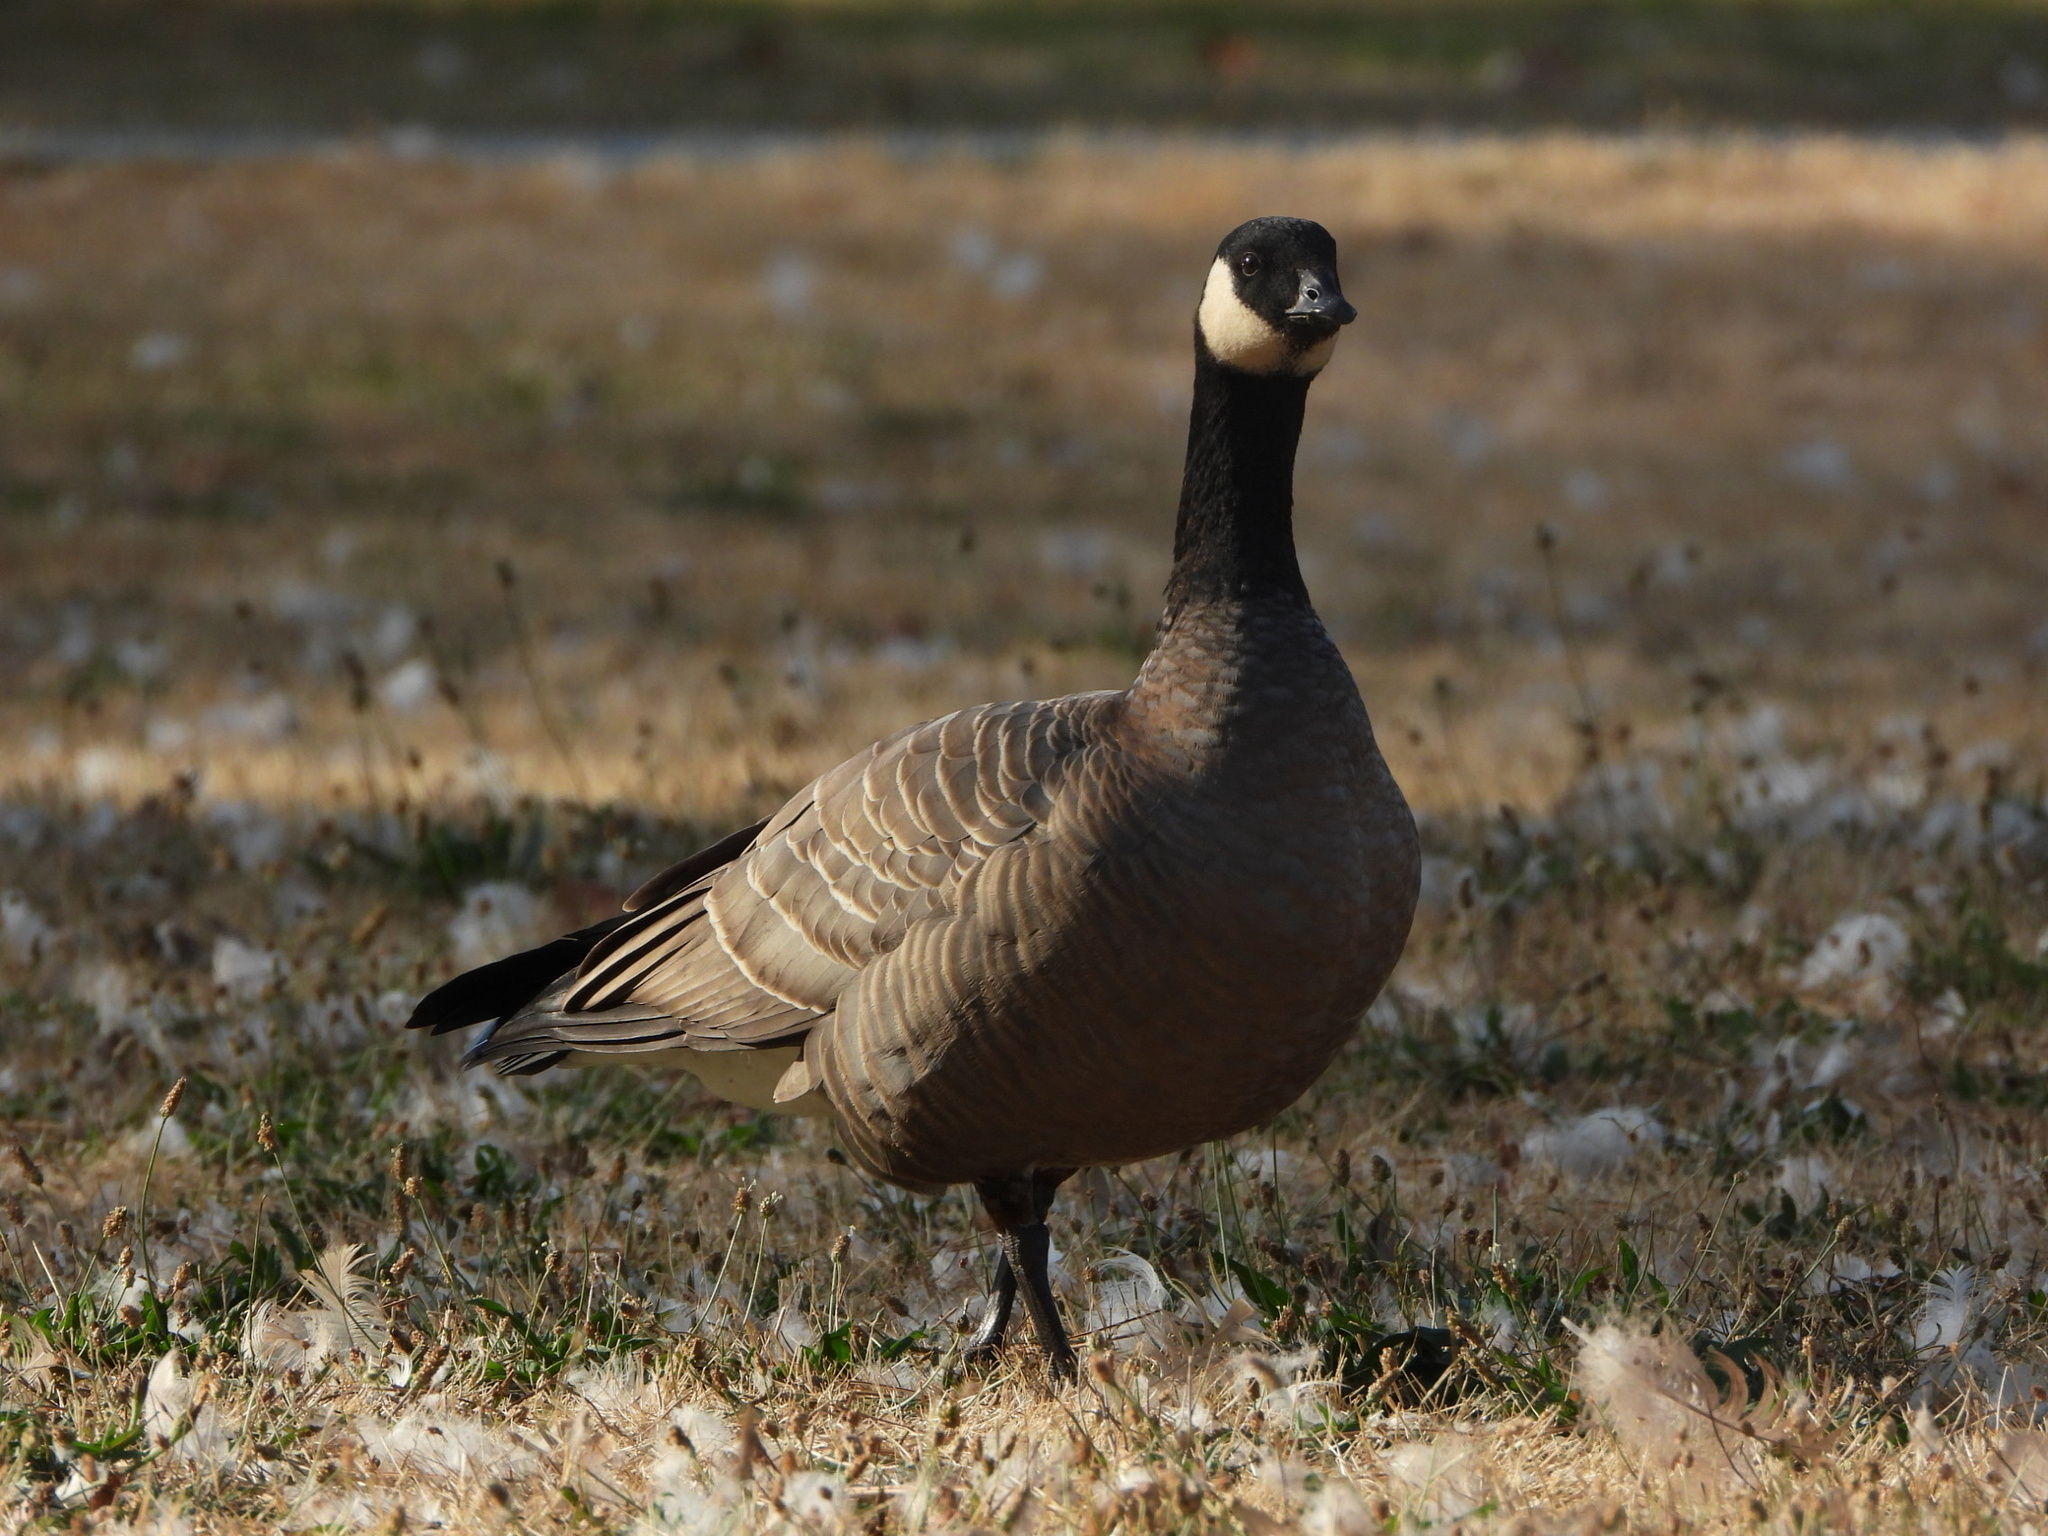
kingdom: Animalia
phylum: Chordata
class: Aves
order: Anseriformes
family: Anatidae
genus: Branta
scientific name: Branta hutchinsii
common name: Cackling goose
